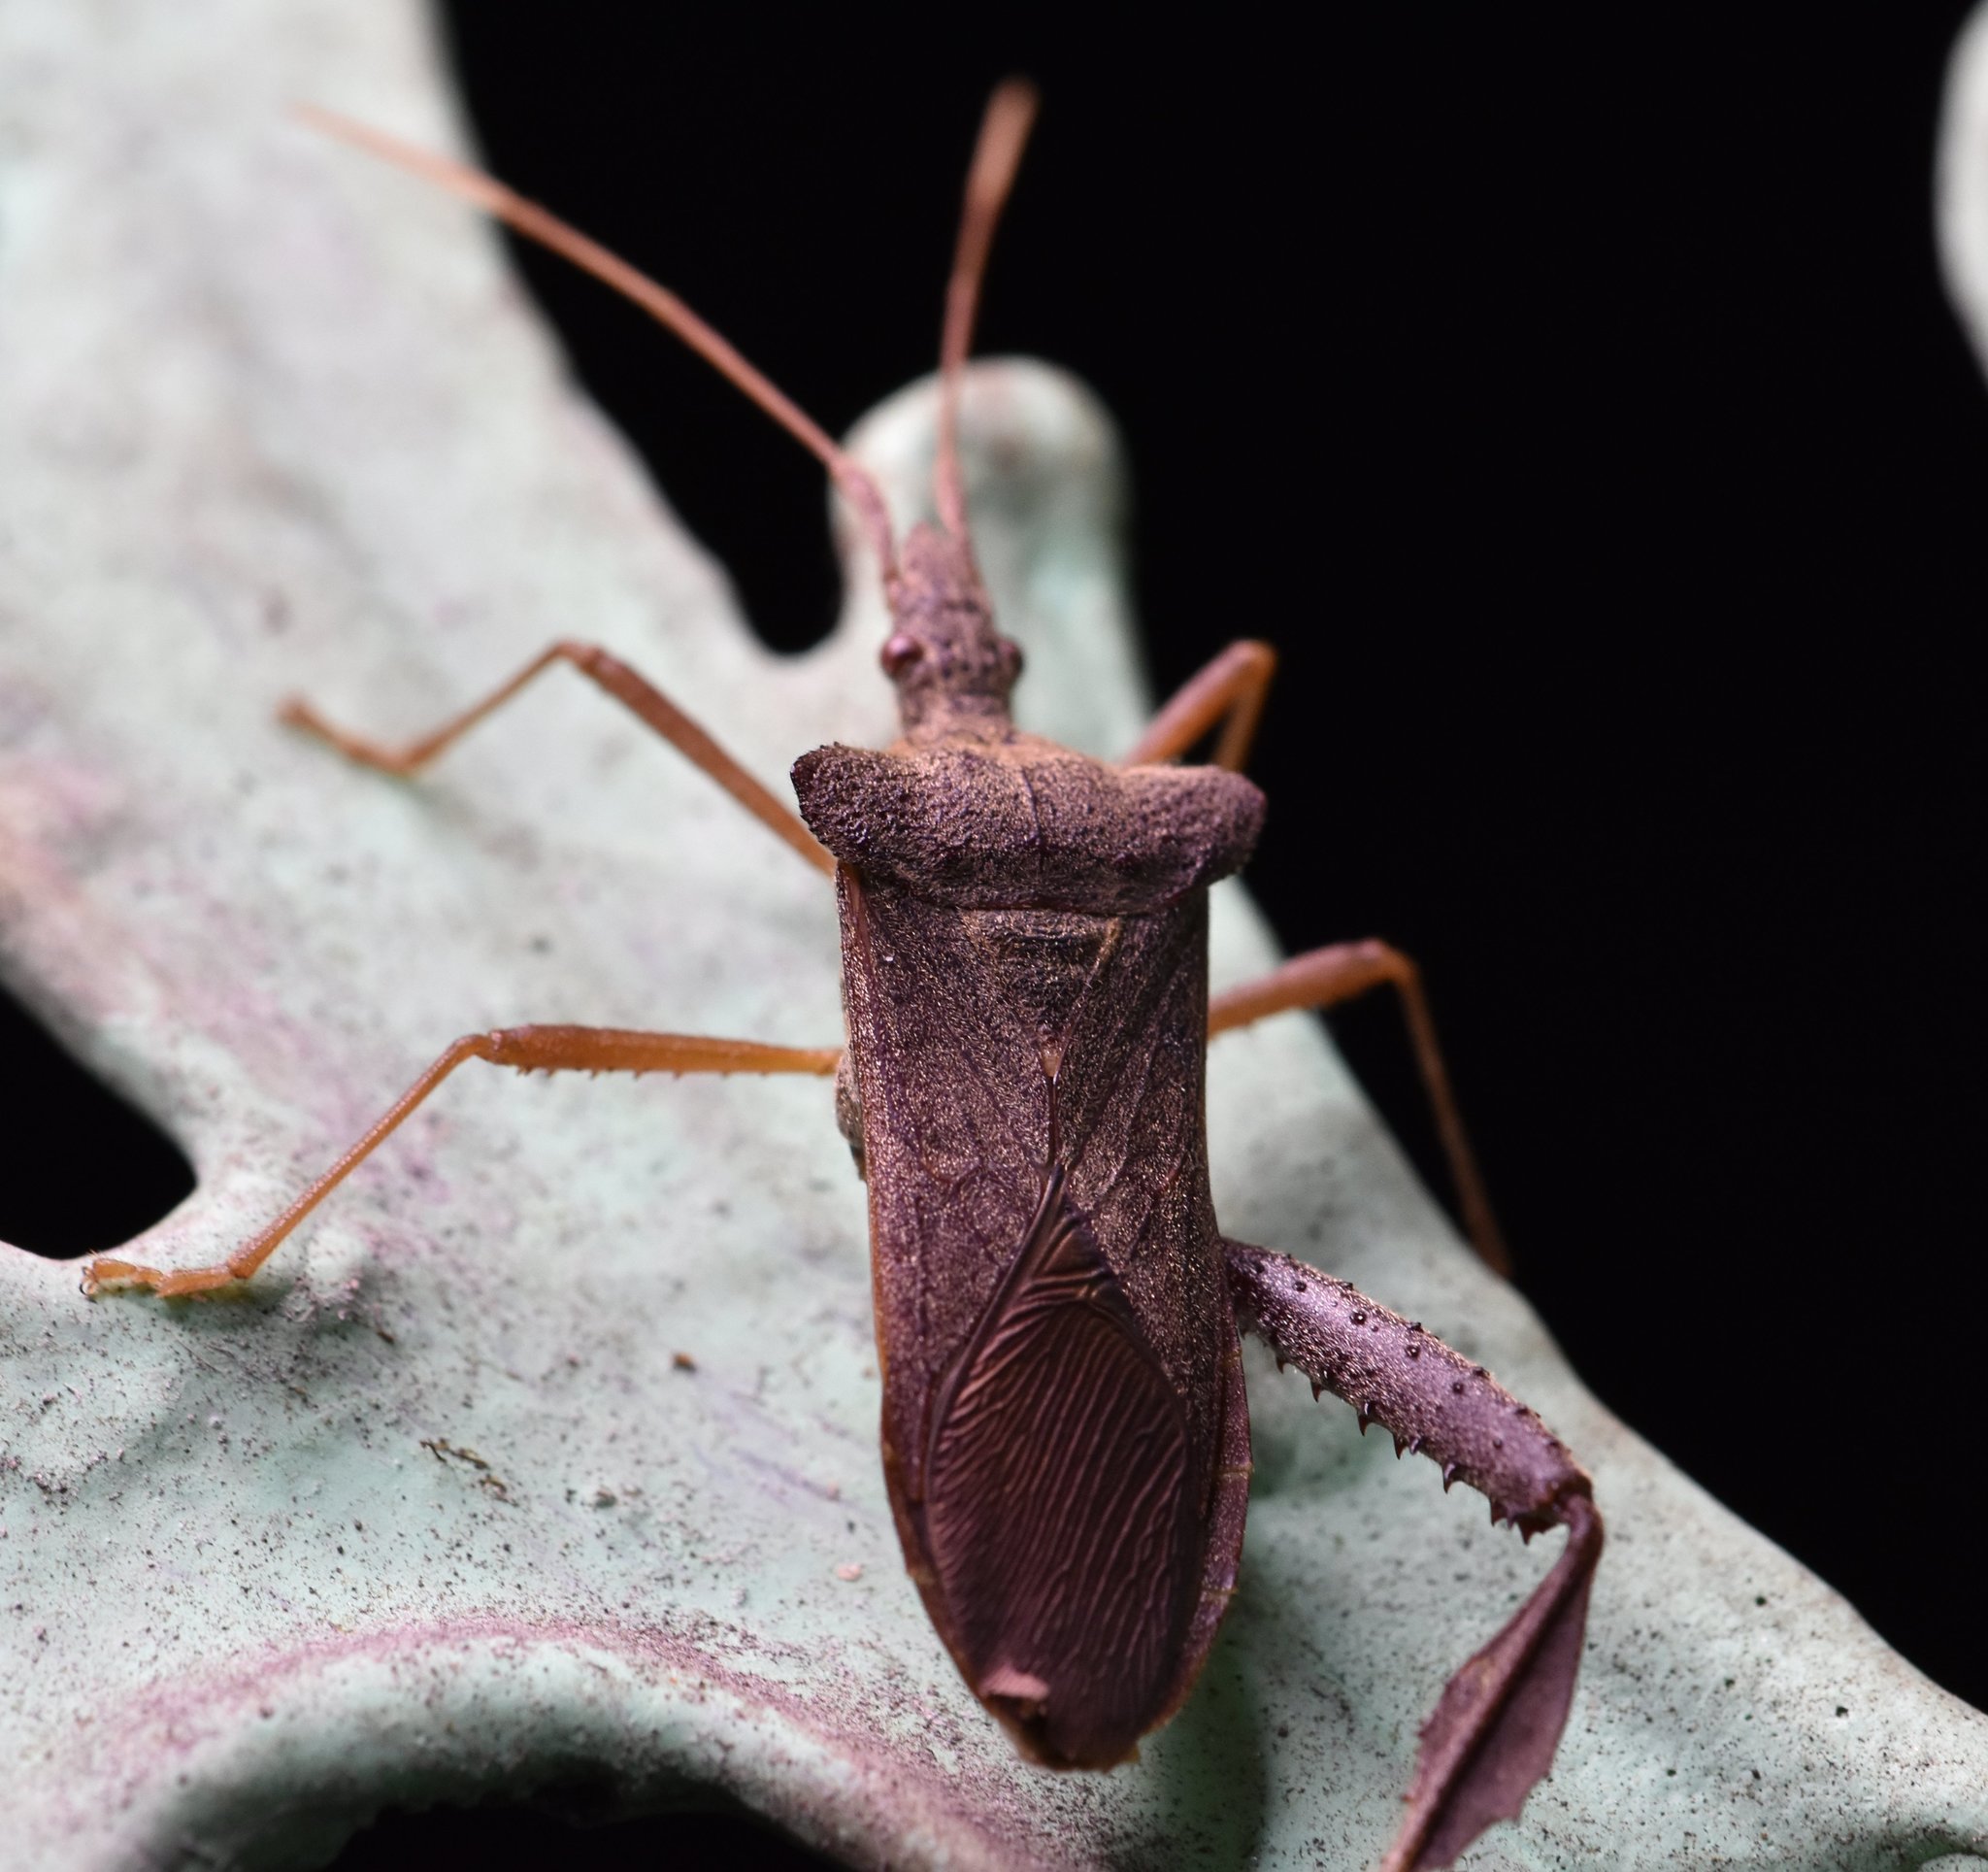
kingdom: Animalia
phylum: Arthropoda
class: Insecta
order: Hemiptera
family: Coreidae
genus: Leptoglossus
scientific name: Leptoglossus fulvicornis
